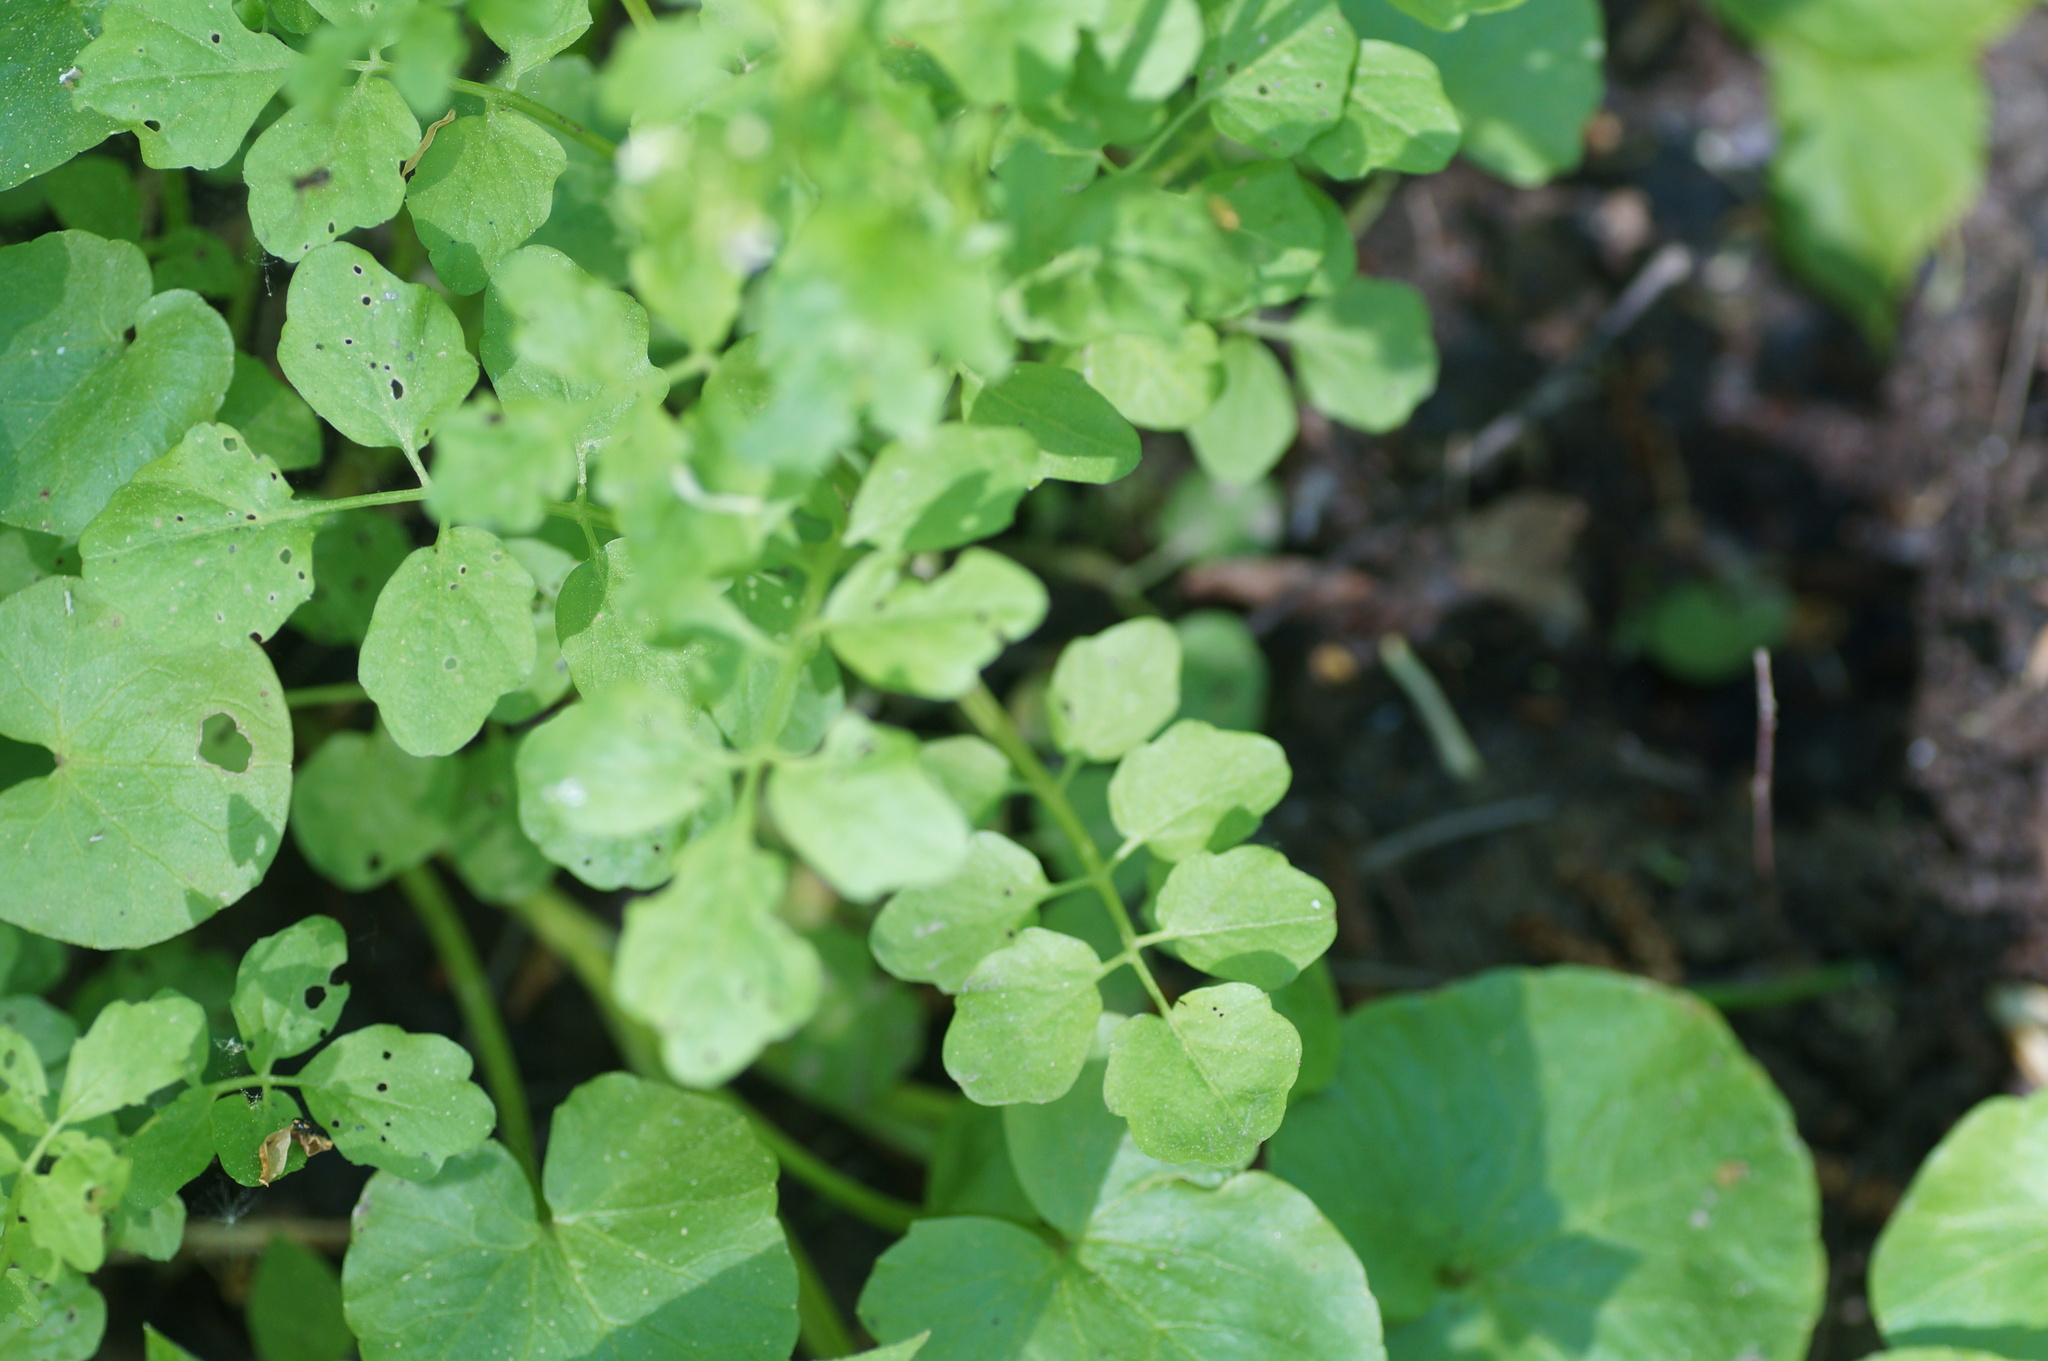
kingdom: Plantae
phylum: Tracheophyta
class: Magnoliopsida
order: Brassicales
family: Brassicaceae
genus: Cardamine
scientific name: Cardamine amara
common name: Large bitter-cress
